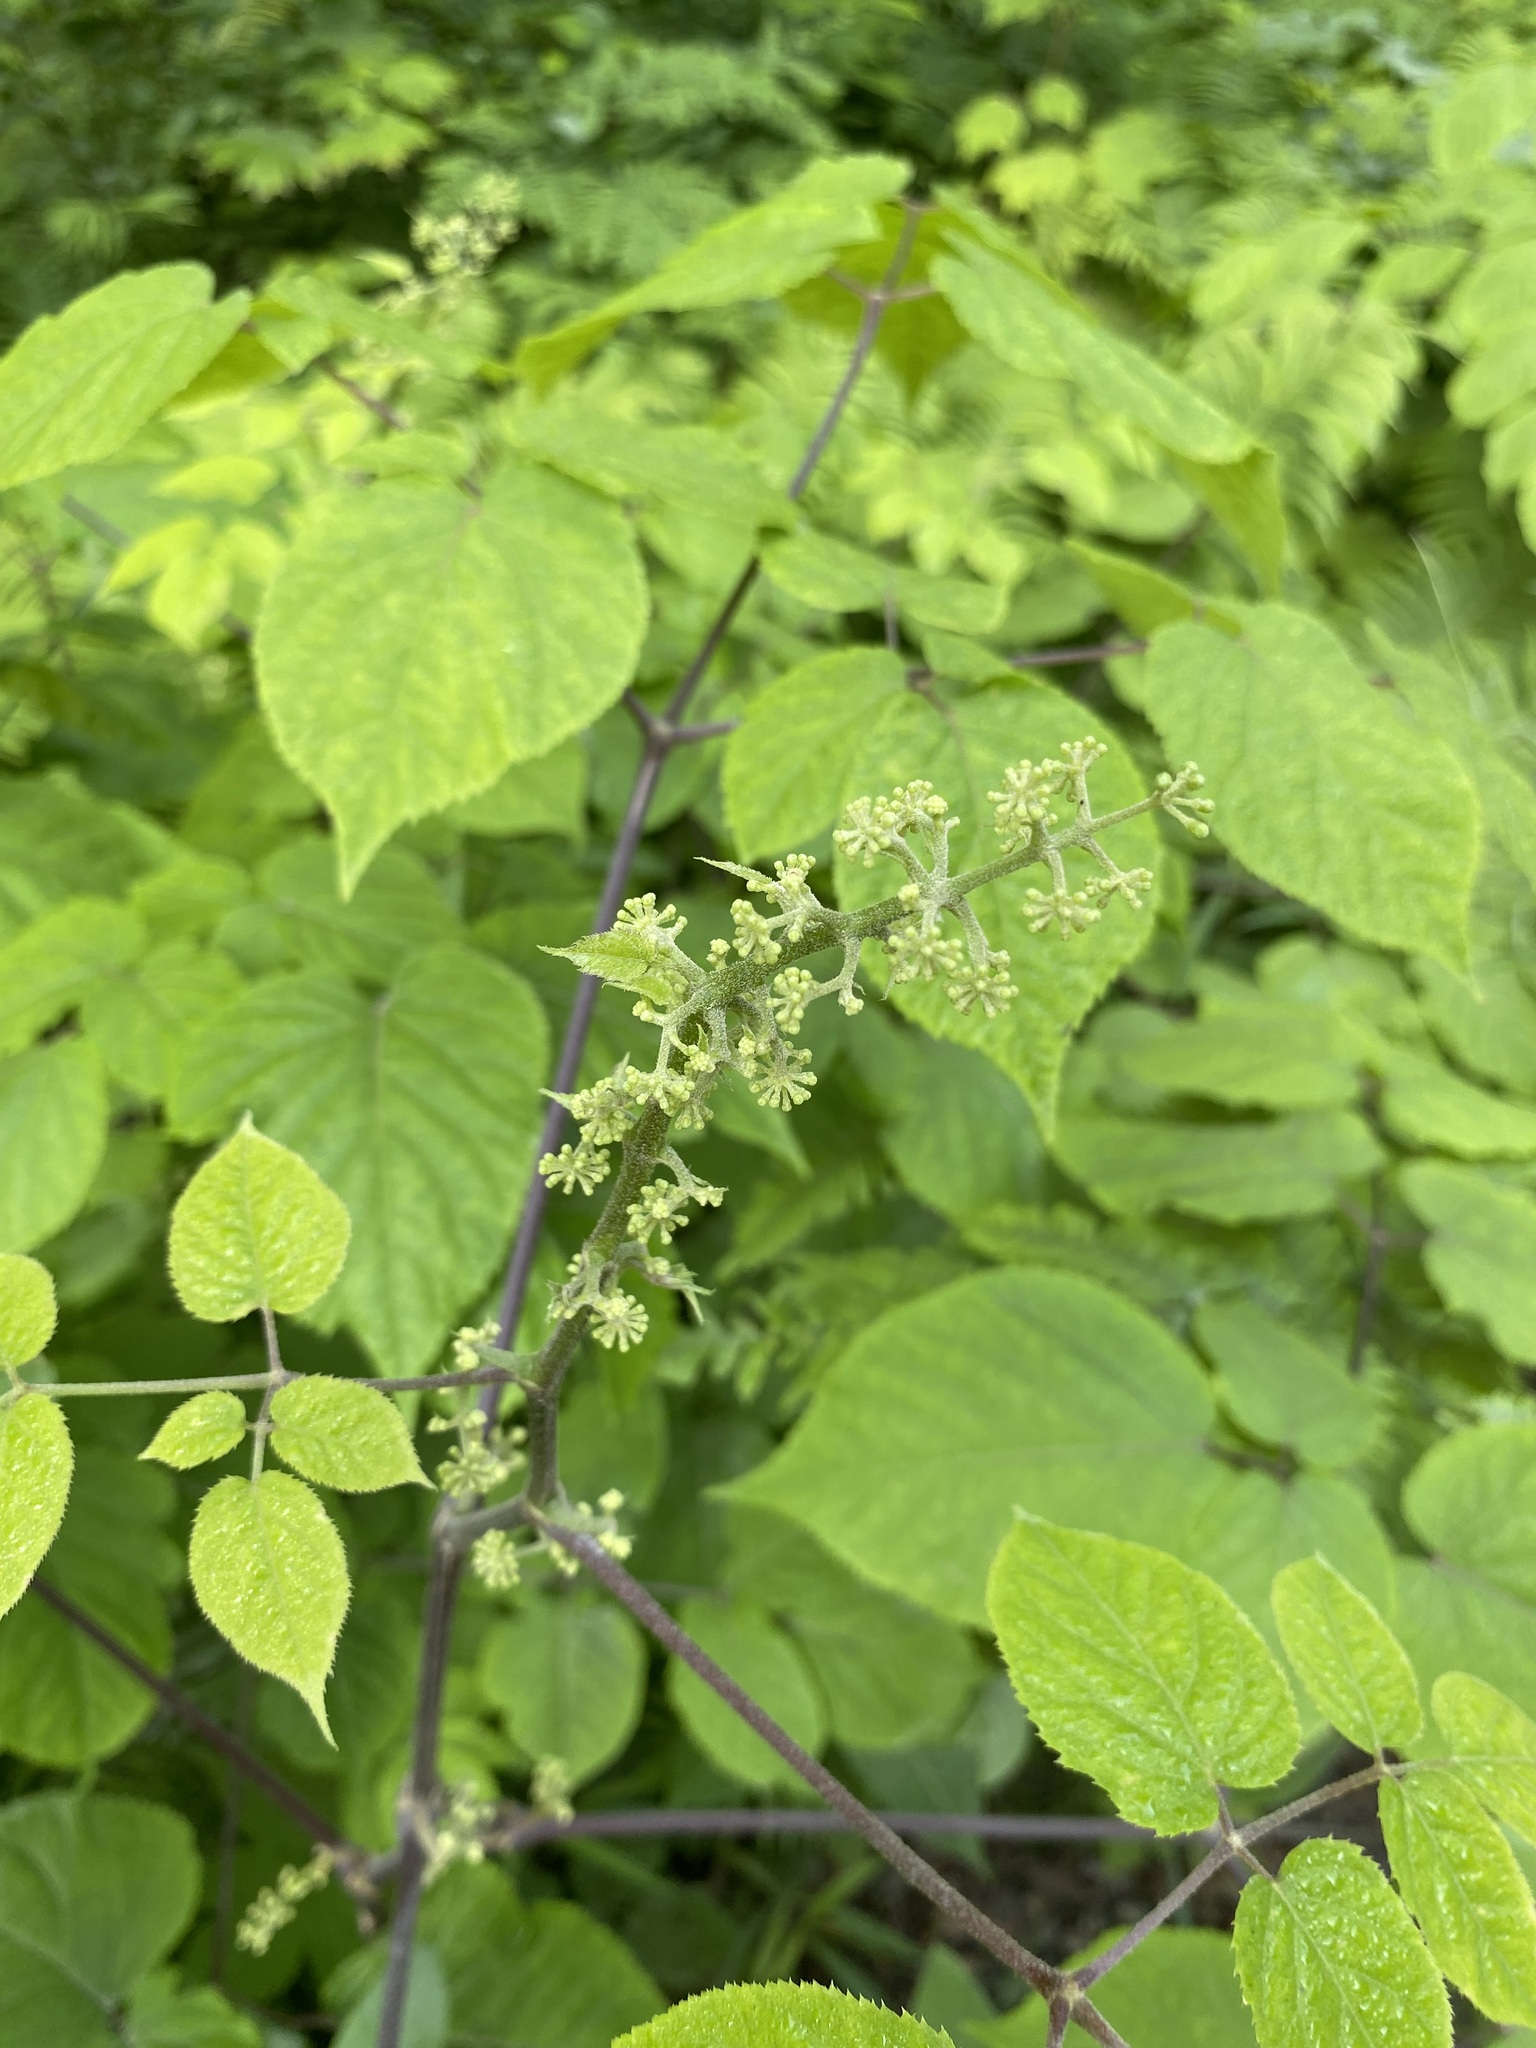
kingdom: Plantae
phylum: Tracheophyta
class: Magnoliopsida
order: Apiales
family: Araliaceae
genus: Aralia
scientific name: Aralia racemosa
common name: American-spikenard
